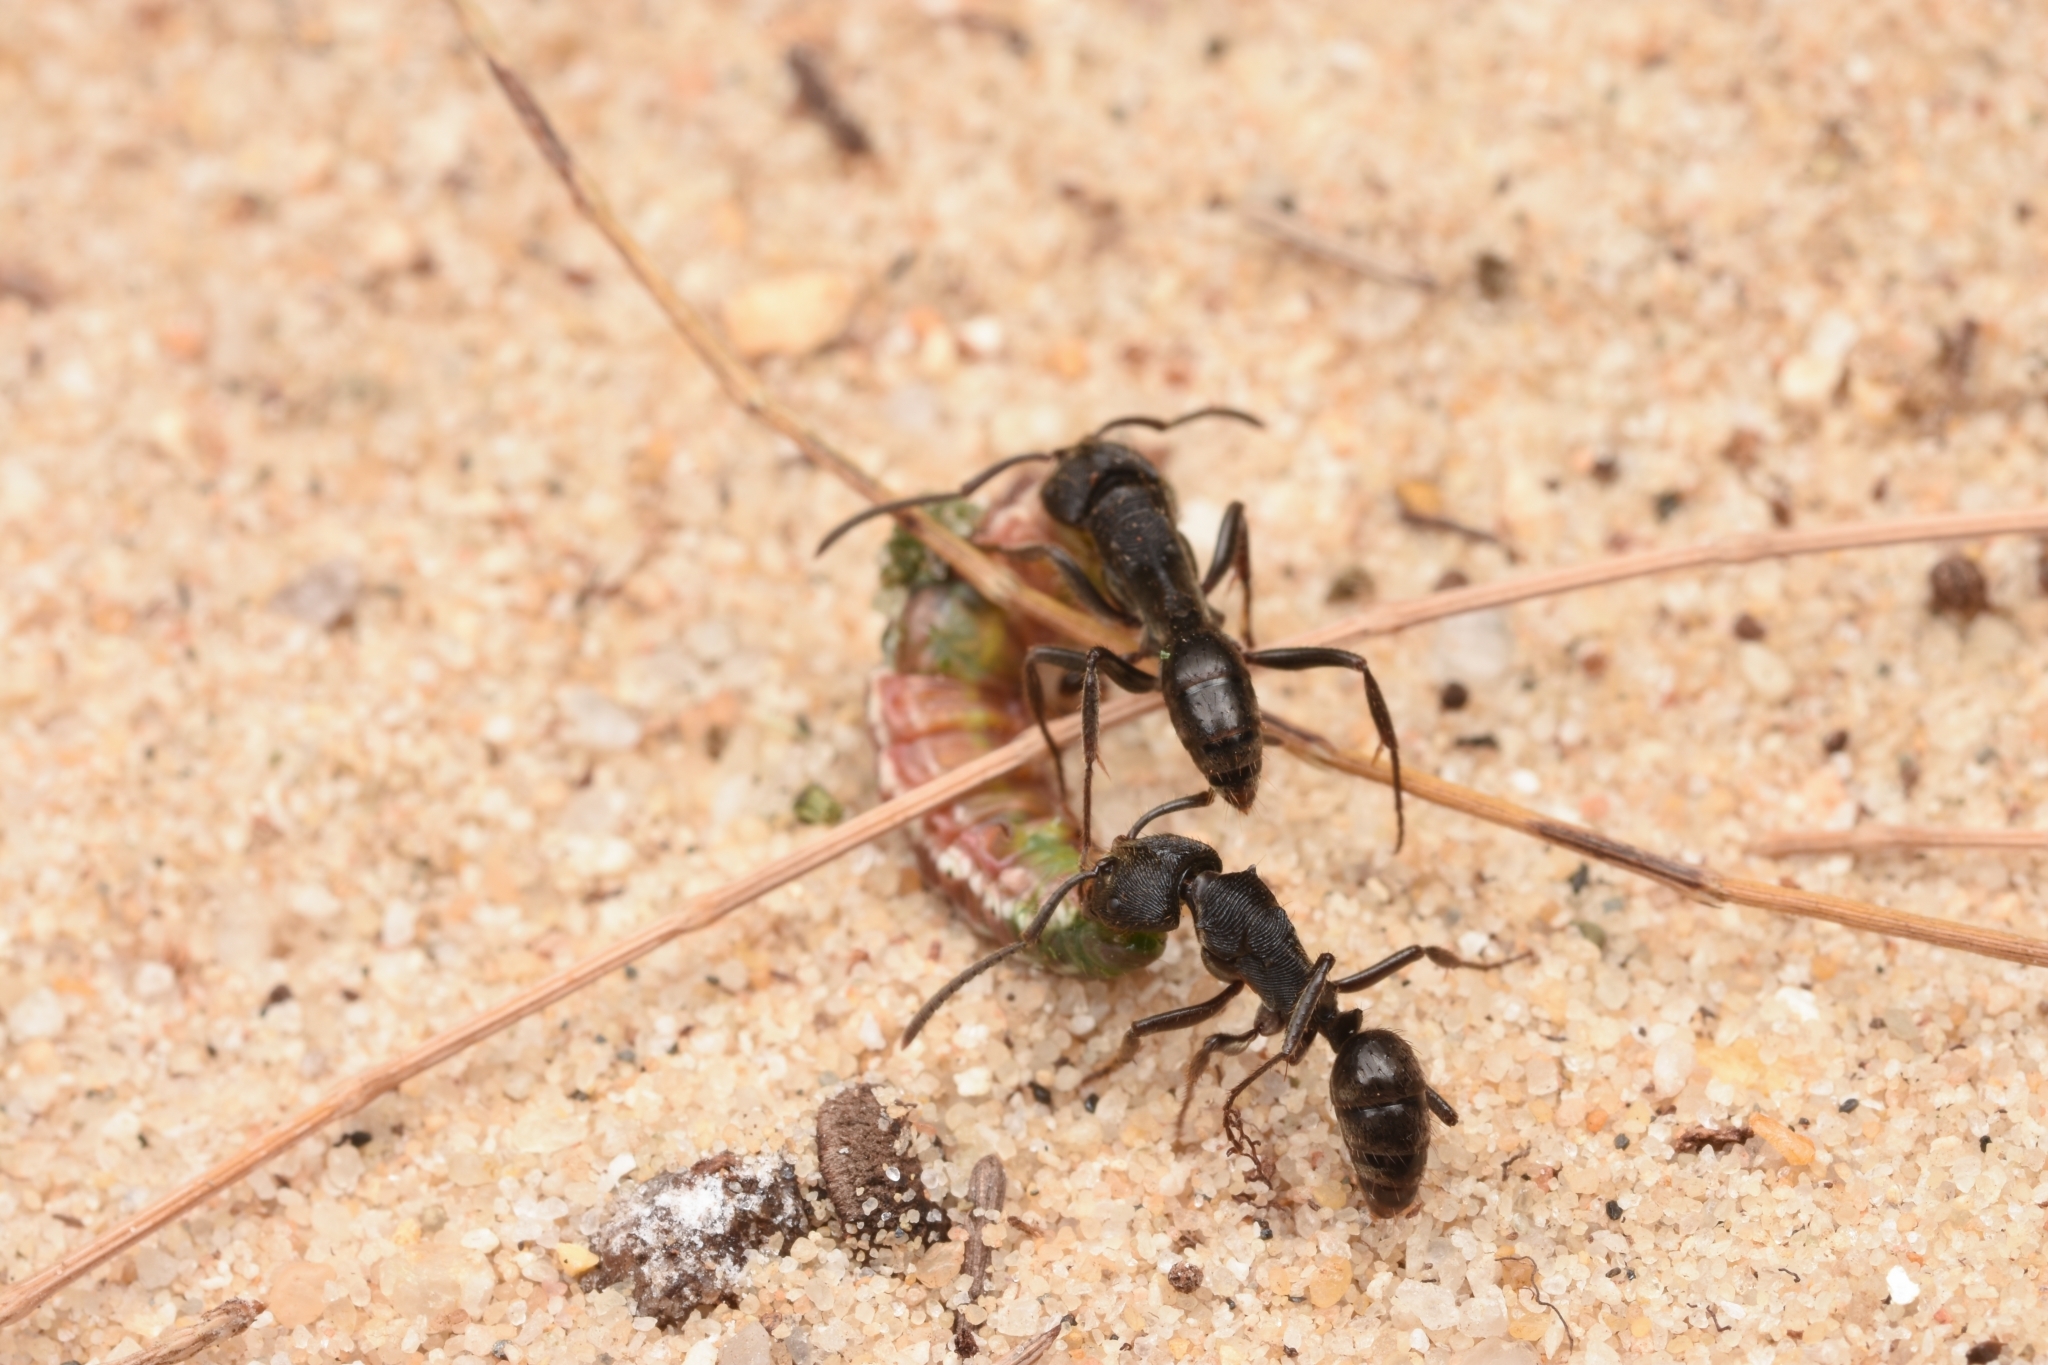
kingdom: Animalia
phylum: Arthropoda
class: Insecta
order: Hymenoptera
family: Formicidae
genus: Odontoponera
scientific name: Odontoponera denticulata
